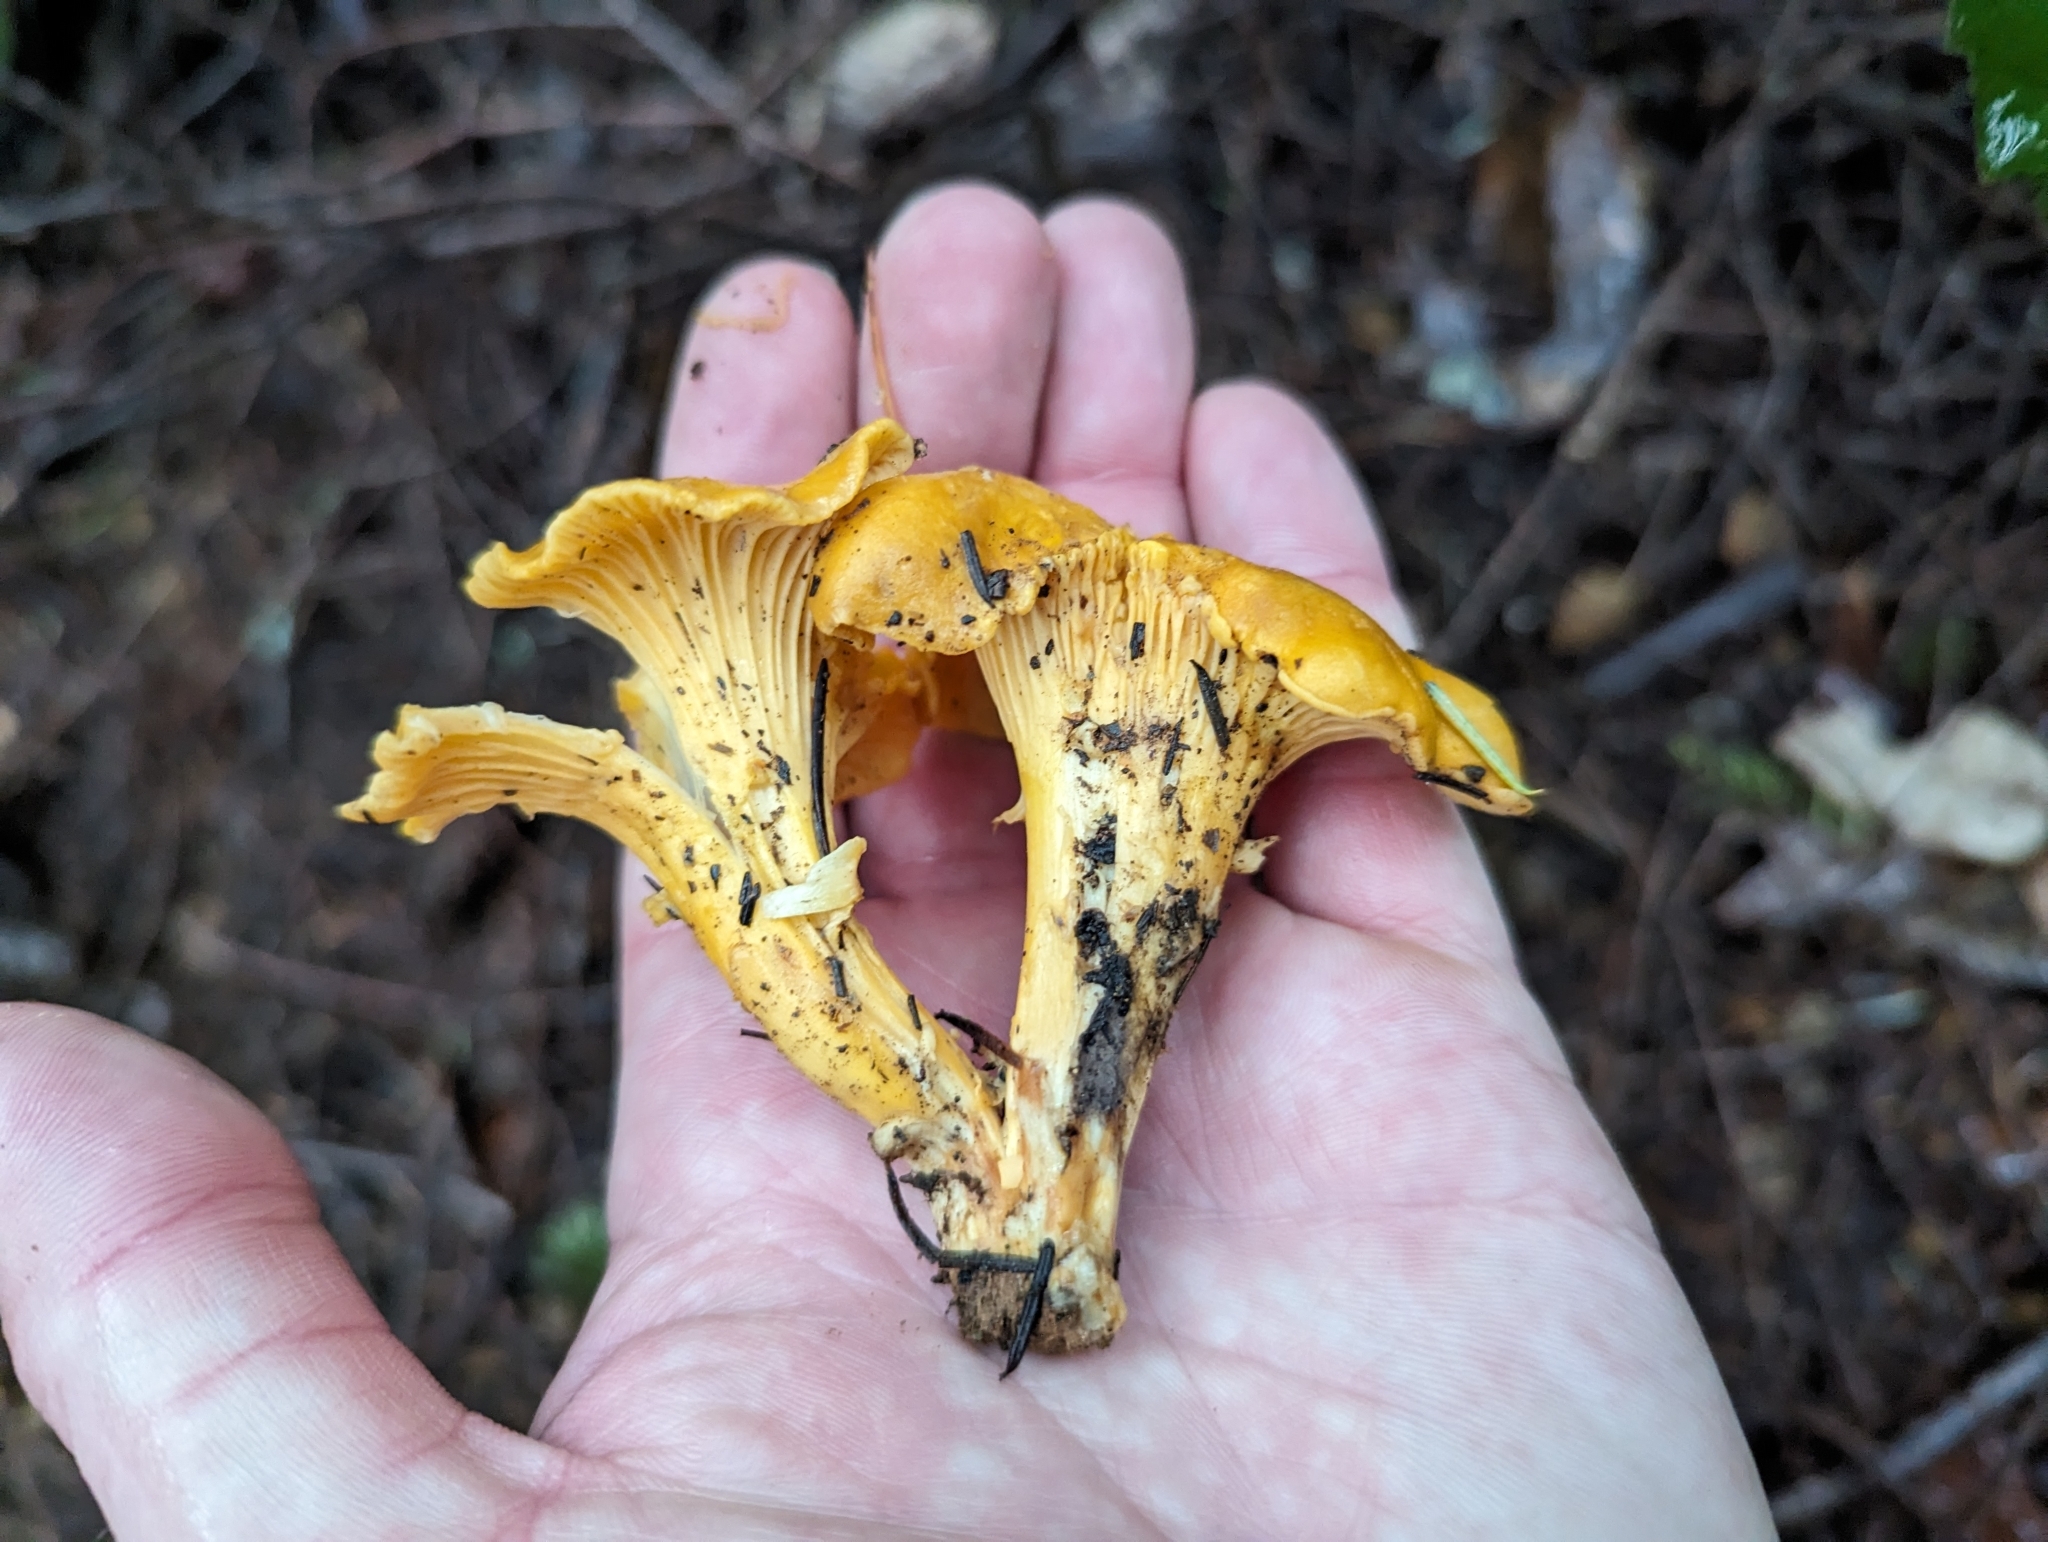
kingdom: Fungi
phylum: Basidiomycota
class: Agaricomycetes
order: Cantharellales
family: Hydnaceae
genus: Cantharellus
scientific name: Cantharellus californicus
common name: California golden chanterelle
